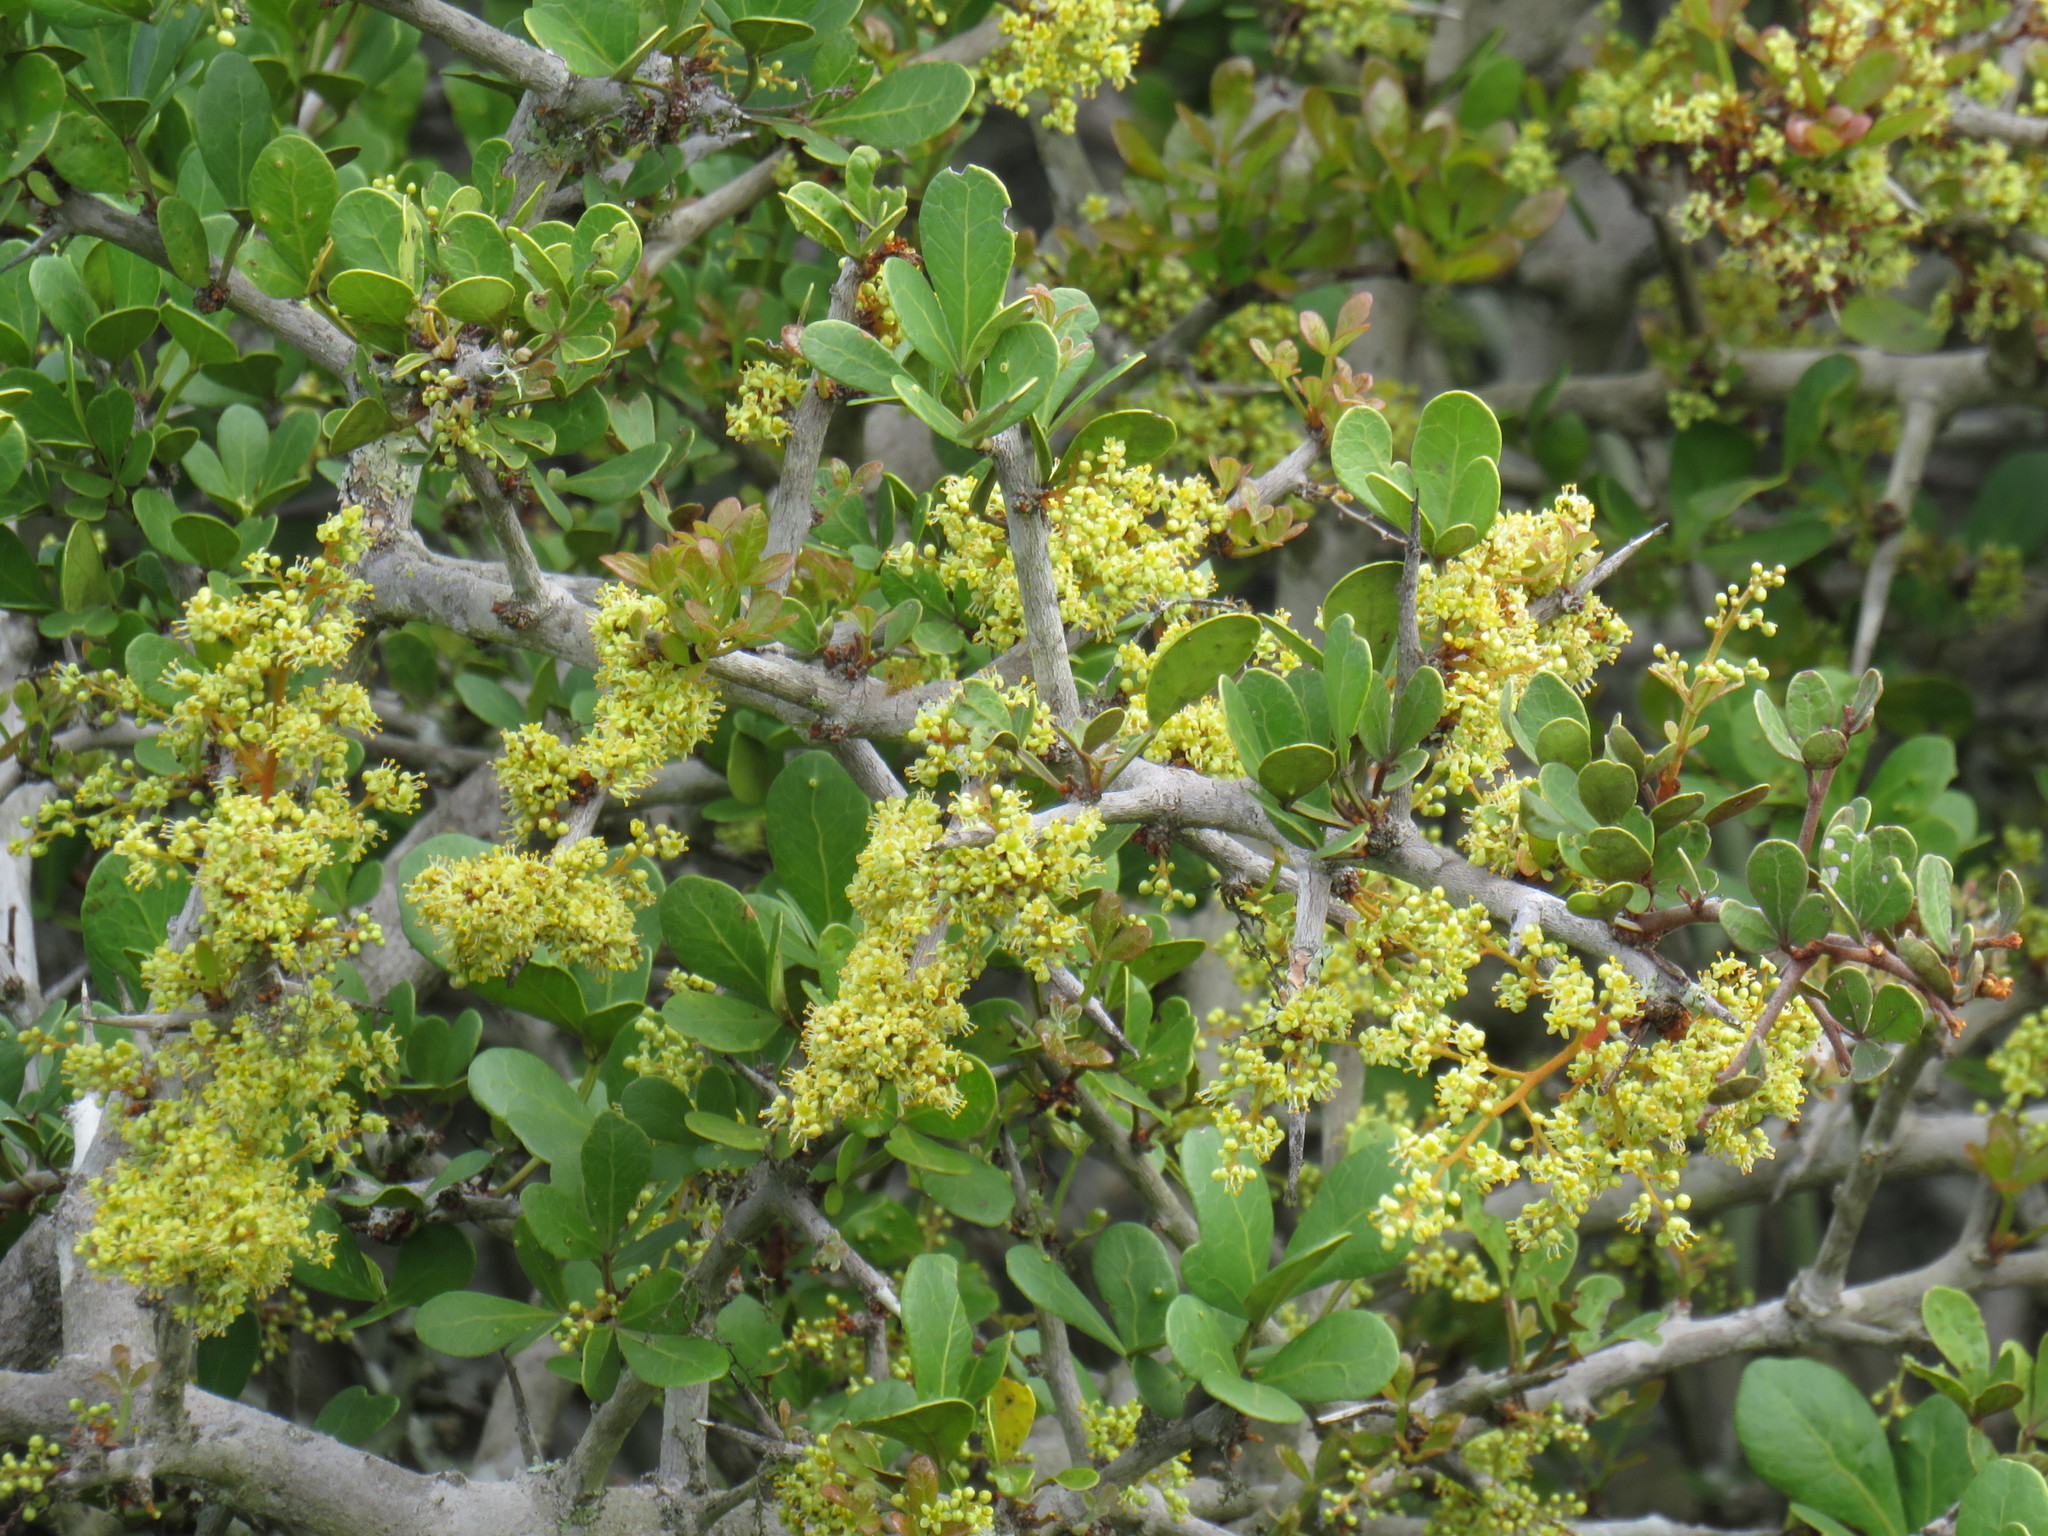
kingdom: Plantae
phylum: Tracheophyta
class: Magnoliopsida
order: Sapindales
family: Anacardiaceae
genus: Searsia
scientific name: Searsia pterota
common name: Winged currant
